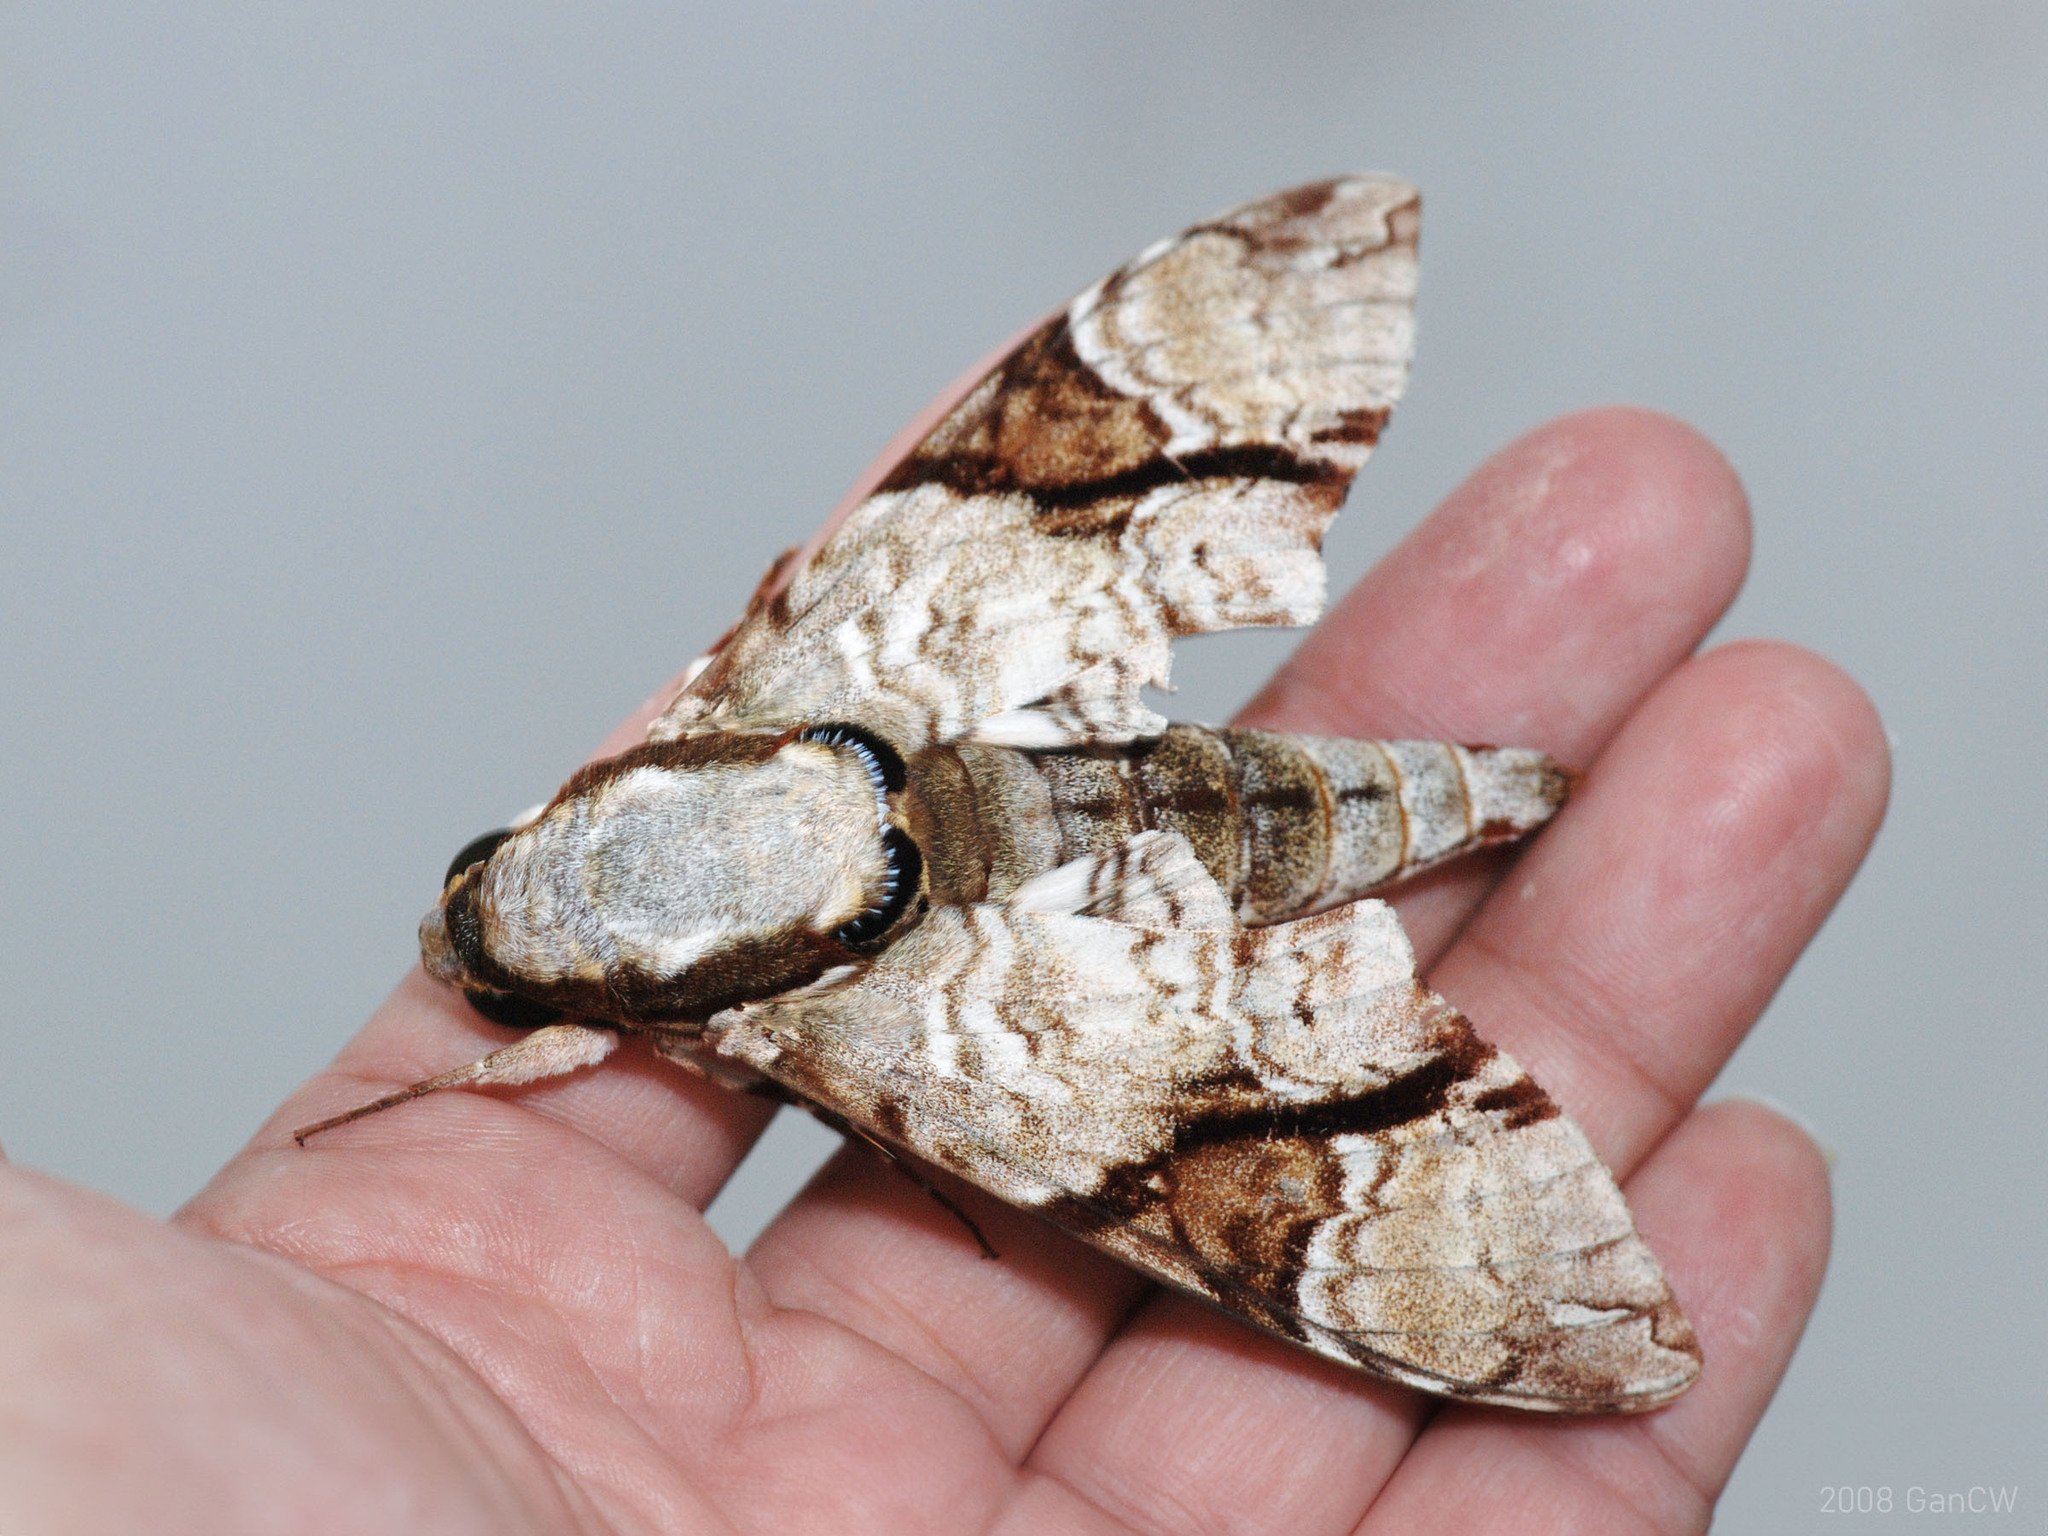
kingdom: Animalia
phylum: Arthropoda
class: Insecta
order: Lepidoptera
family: Sphingidae
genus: Megacorma
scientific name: Megacorma obliqua
